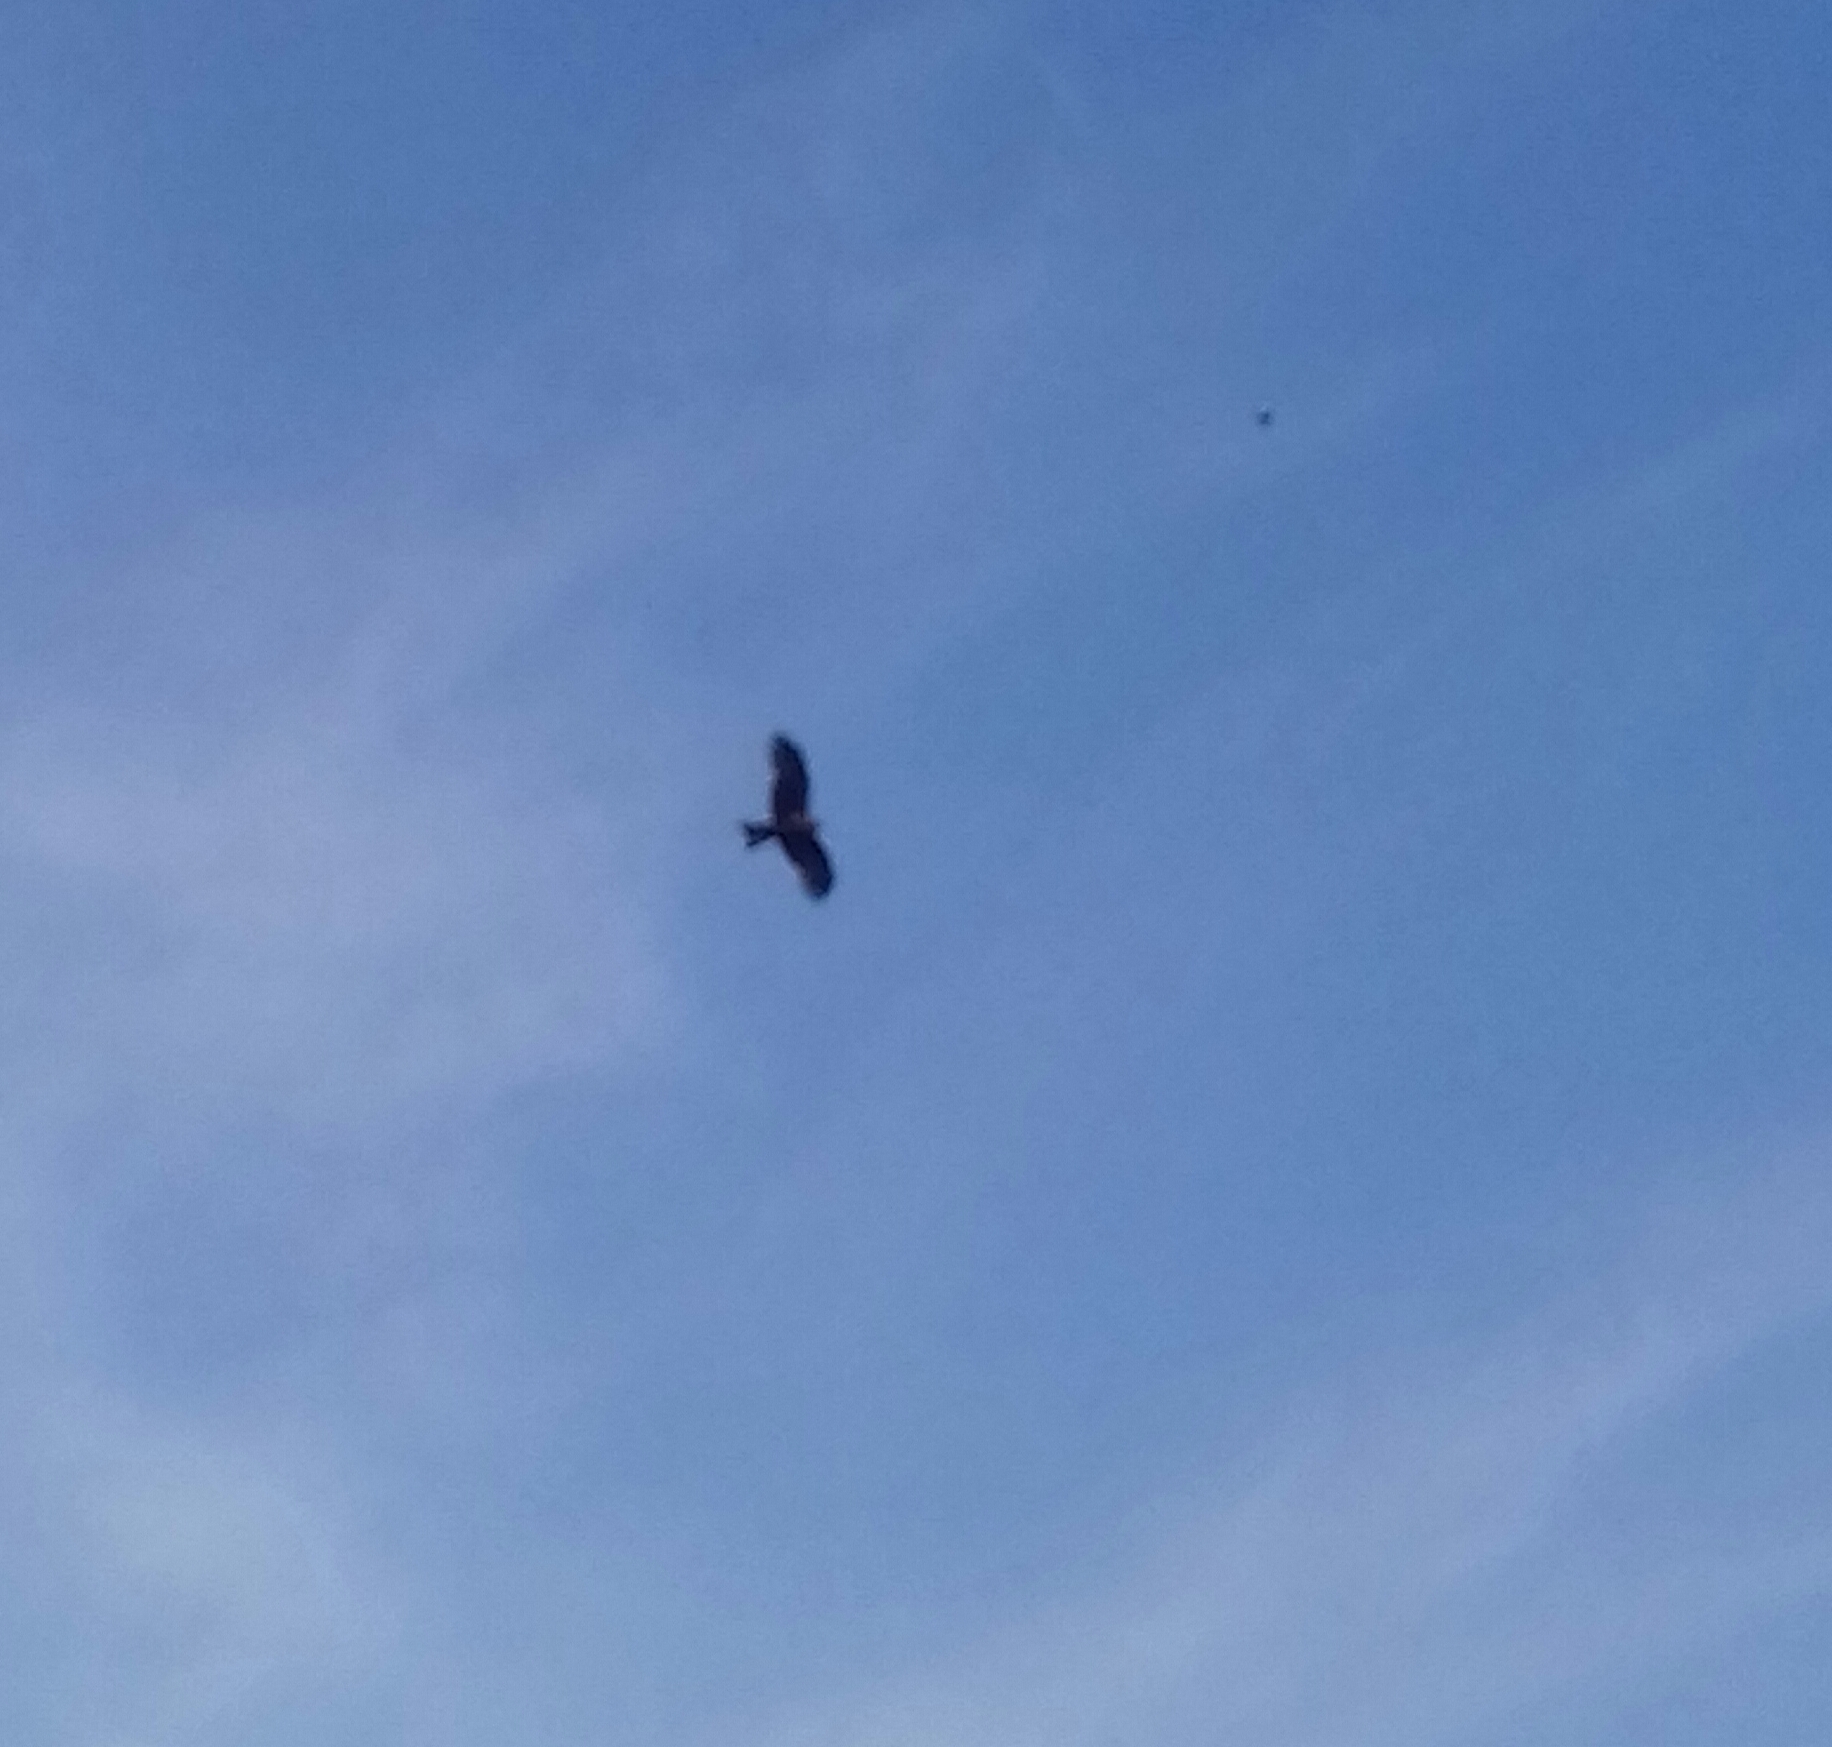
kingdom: Animalia
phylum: Chordata
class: Aves
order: Accipitriformes
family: Accipitridae
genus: Milvus
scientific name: Milvus migrans
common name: Black kite
